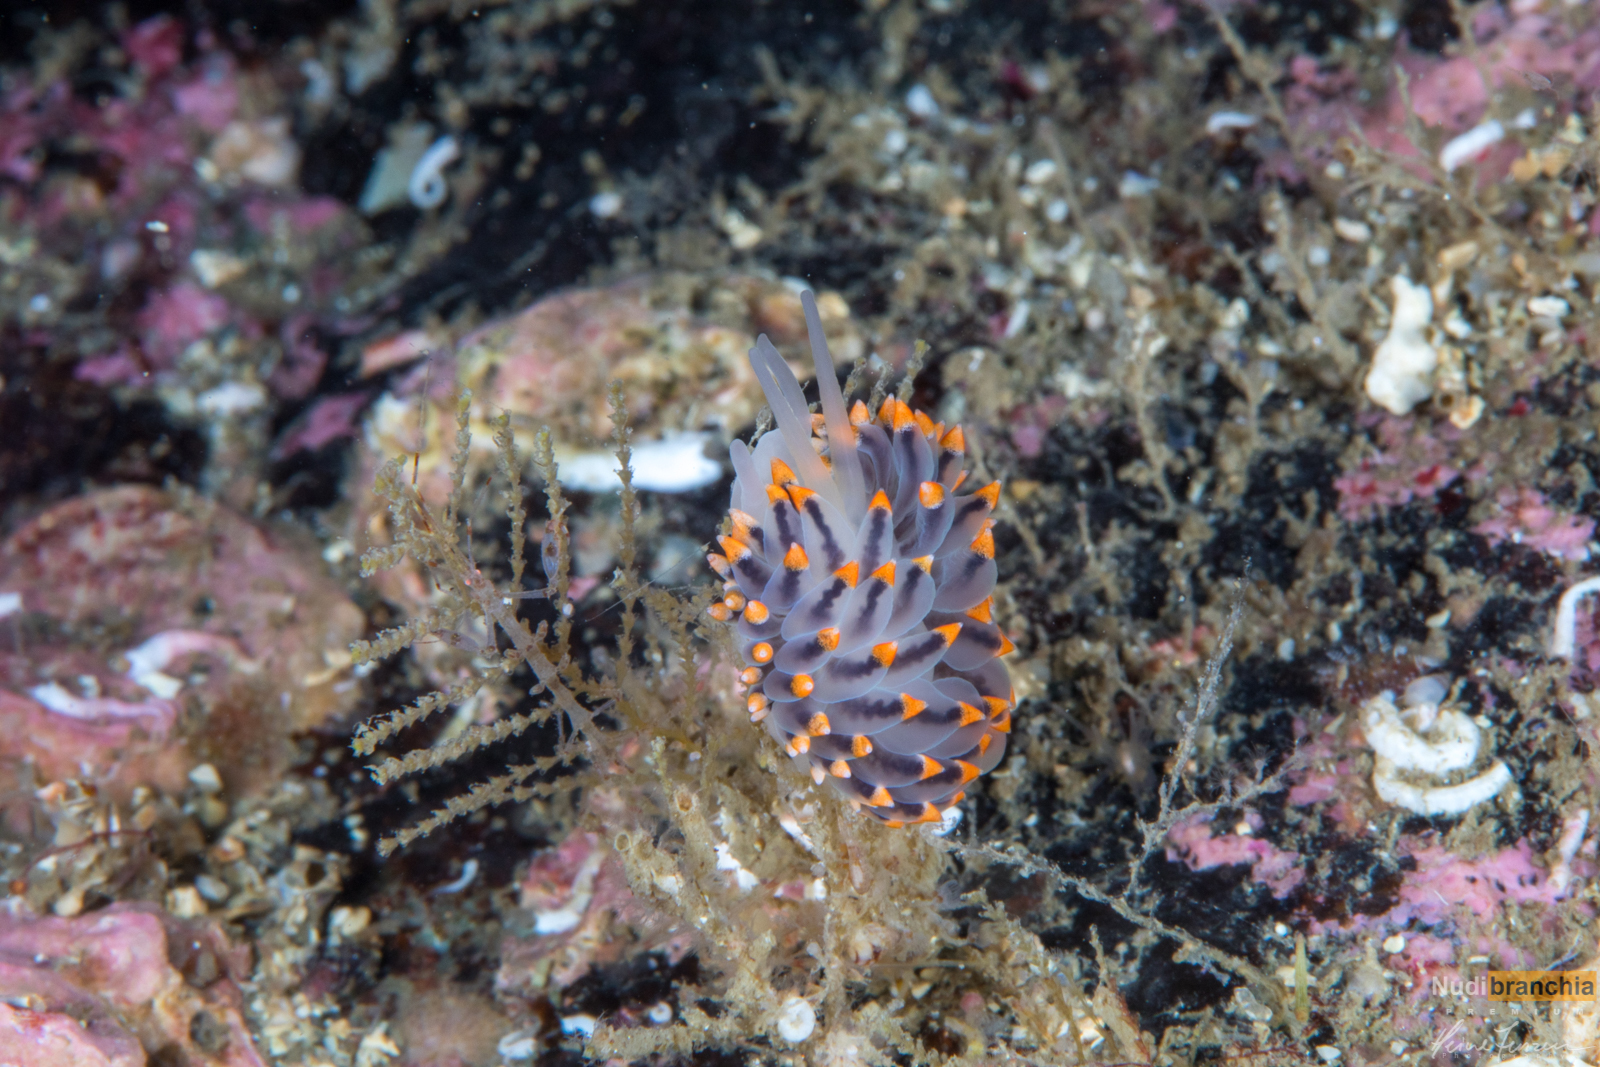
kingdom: Animalia
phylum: Mollusca
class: Gastropoda
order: Nudibranchia
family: Eubranchidae
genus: Eubranchus
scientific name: Eubranchus tricolor
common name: Painted balloon aeolis
